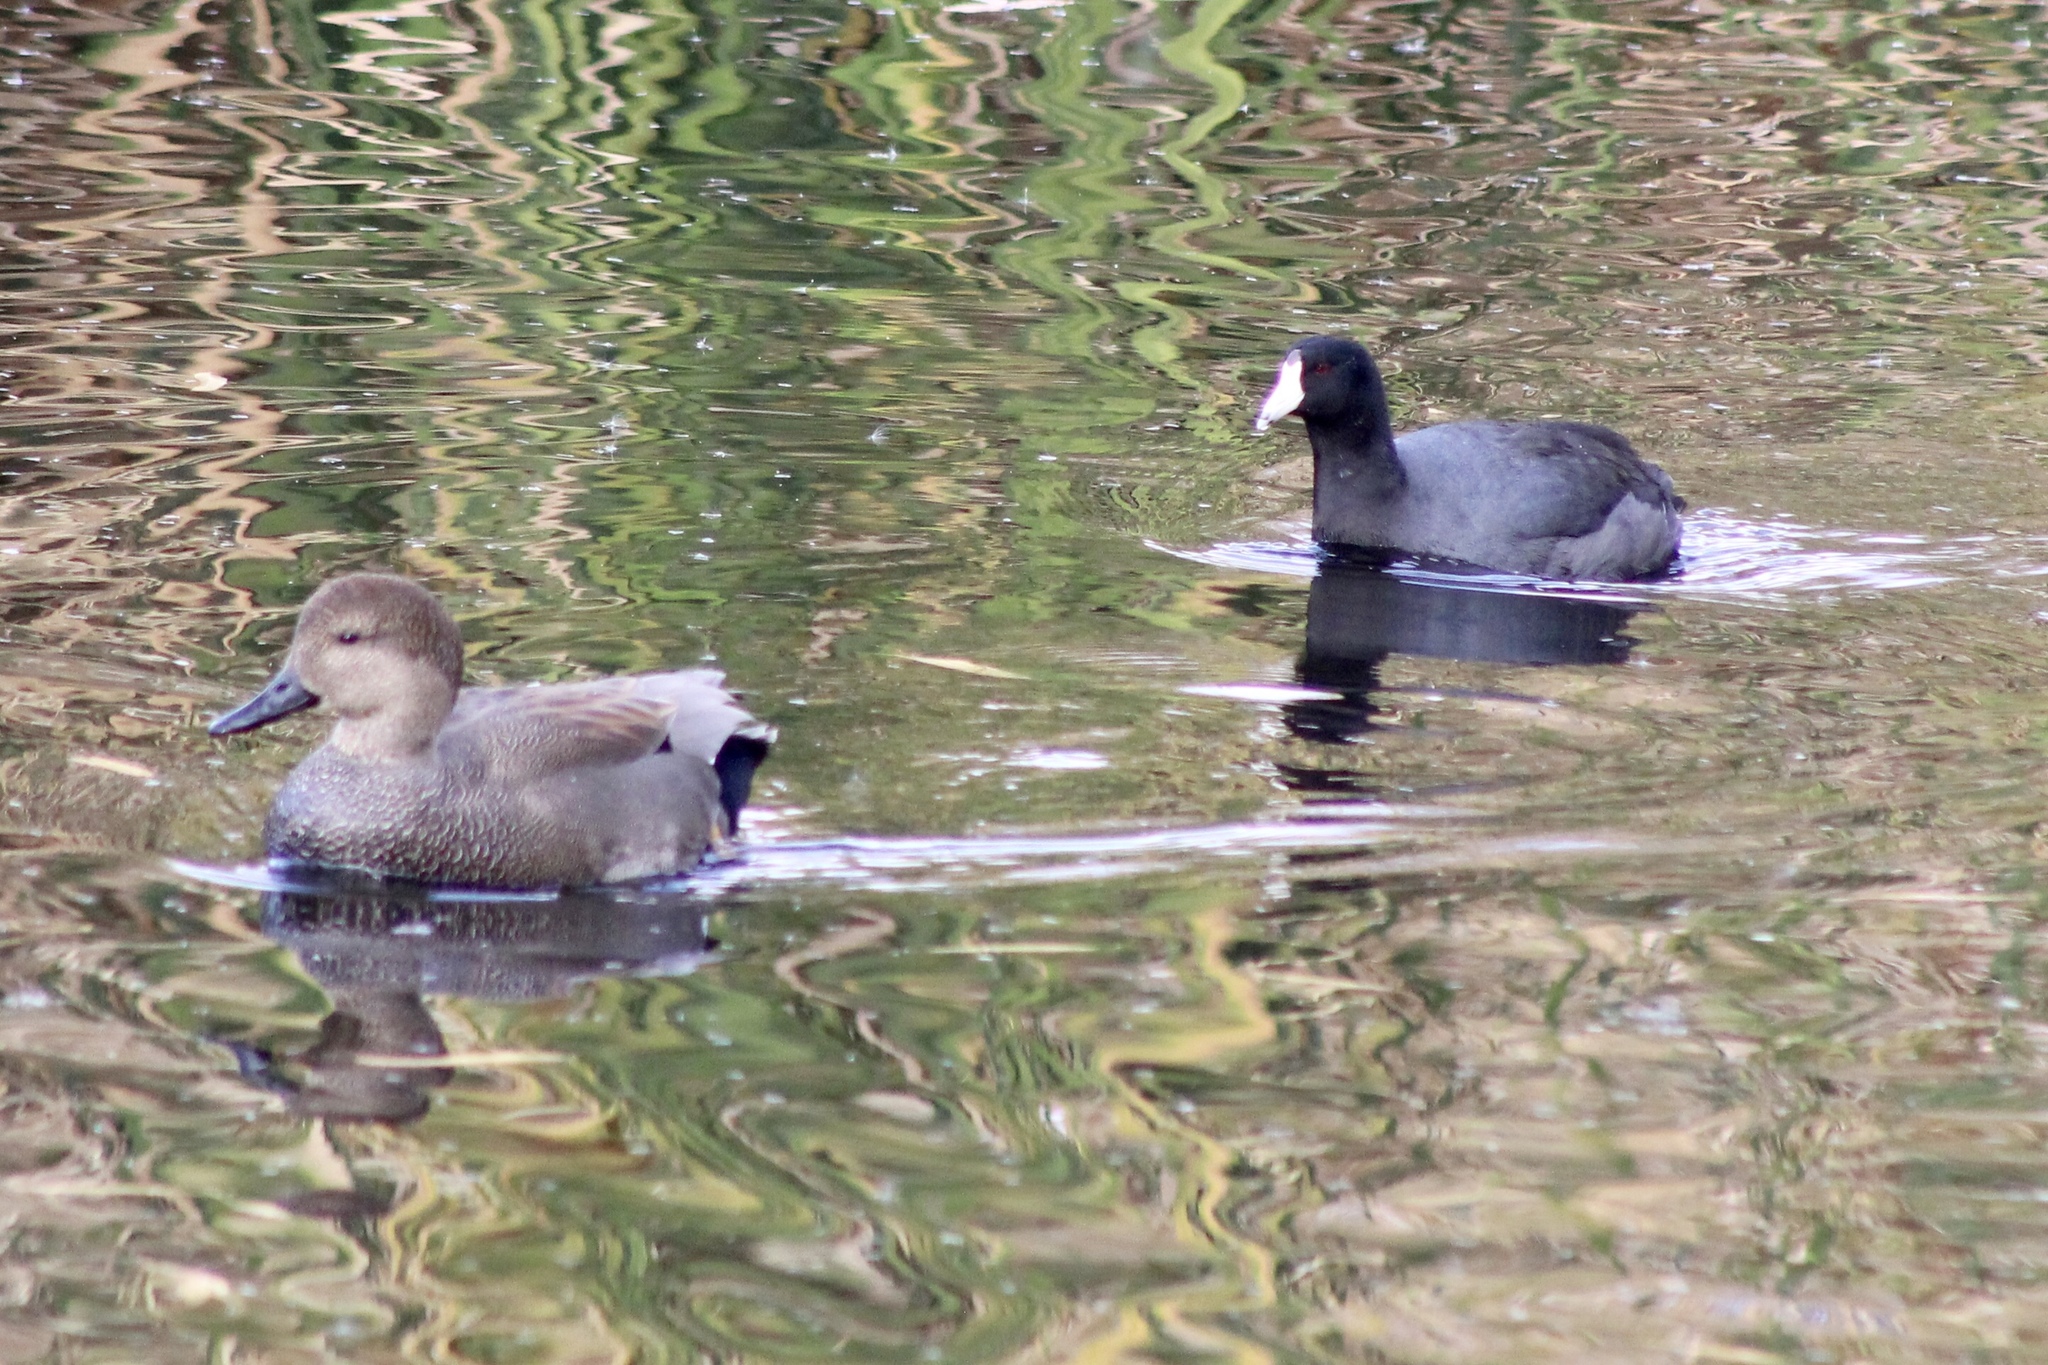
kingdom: Animalia
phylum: Chordata
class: Aves
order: Anseriformes
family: Anatidae
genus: Mareca
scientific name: Mareca strepera
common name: Gadwall
